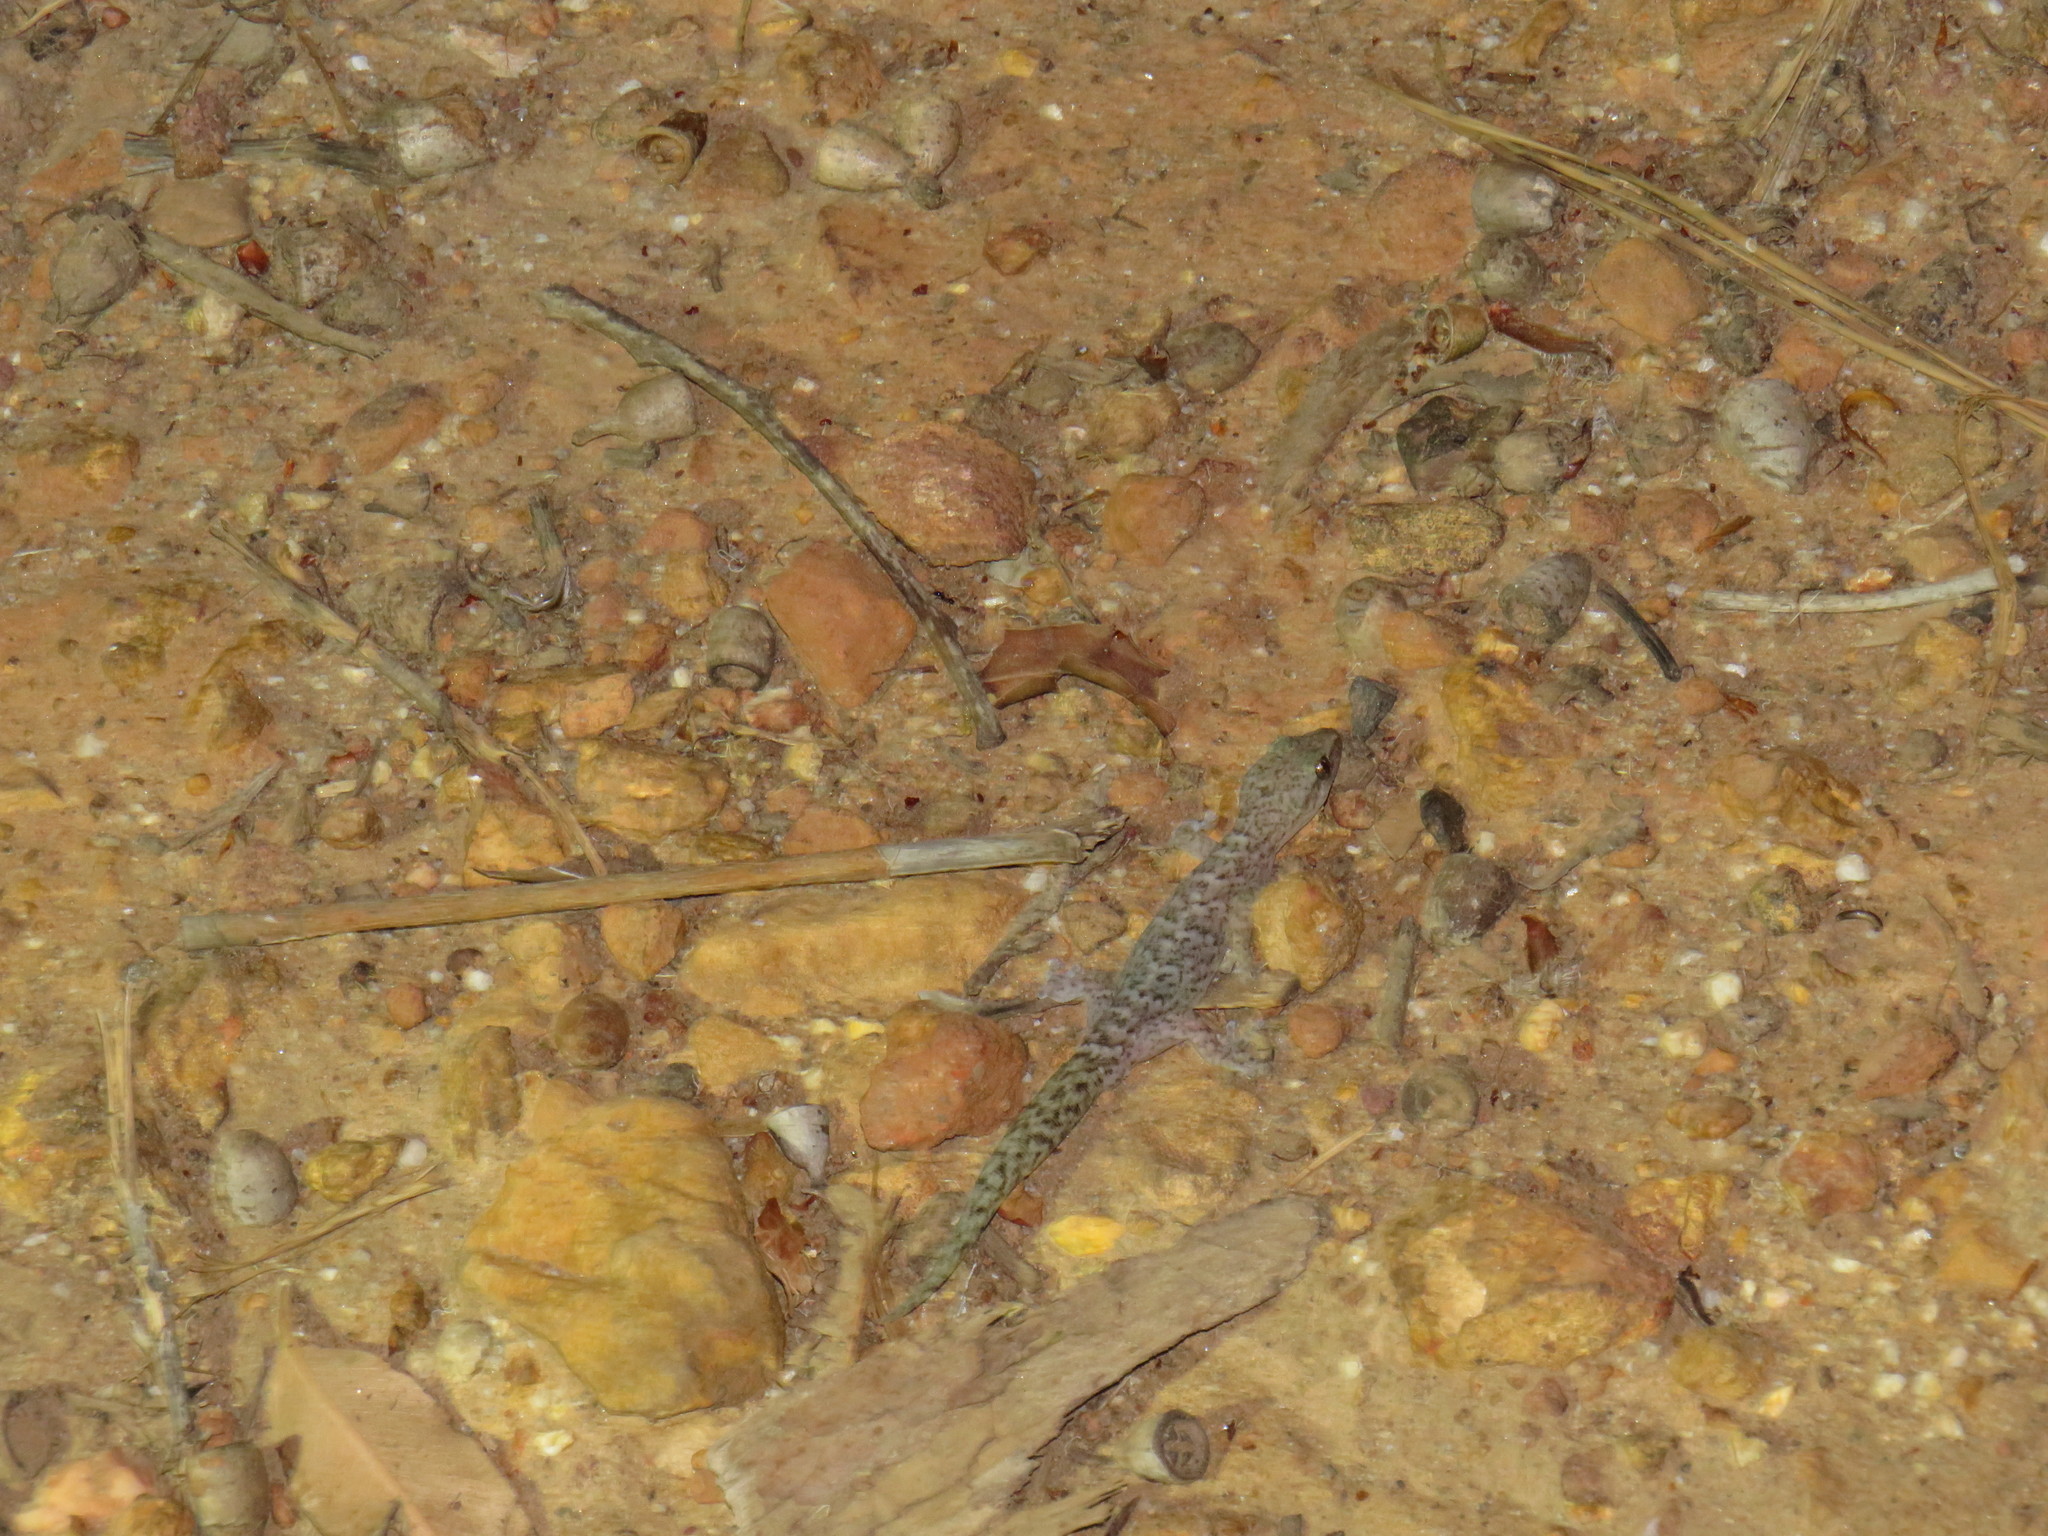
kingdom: Animalia
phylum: Chordata
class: Squamata
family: Gekkonidae
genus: Afrogecko
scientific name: Afrogecko porphyreus
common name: Marbled leaf-toed gecko
